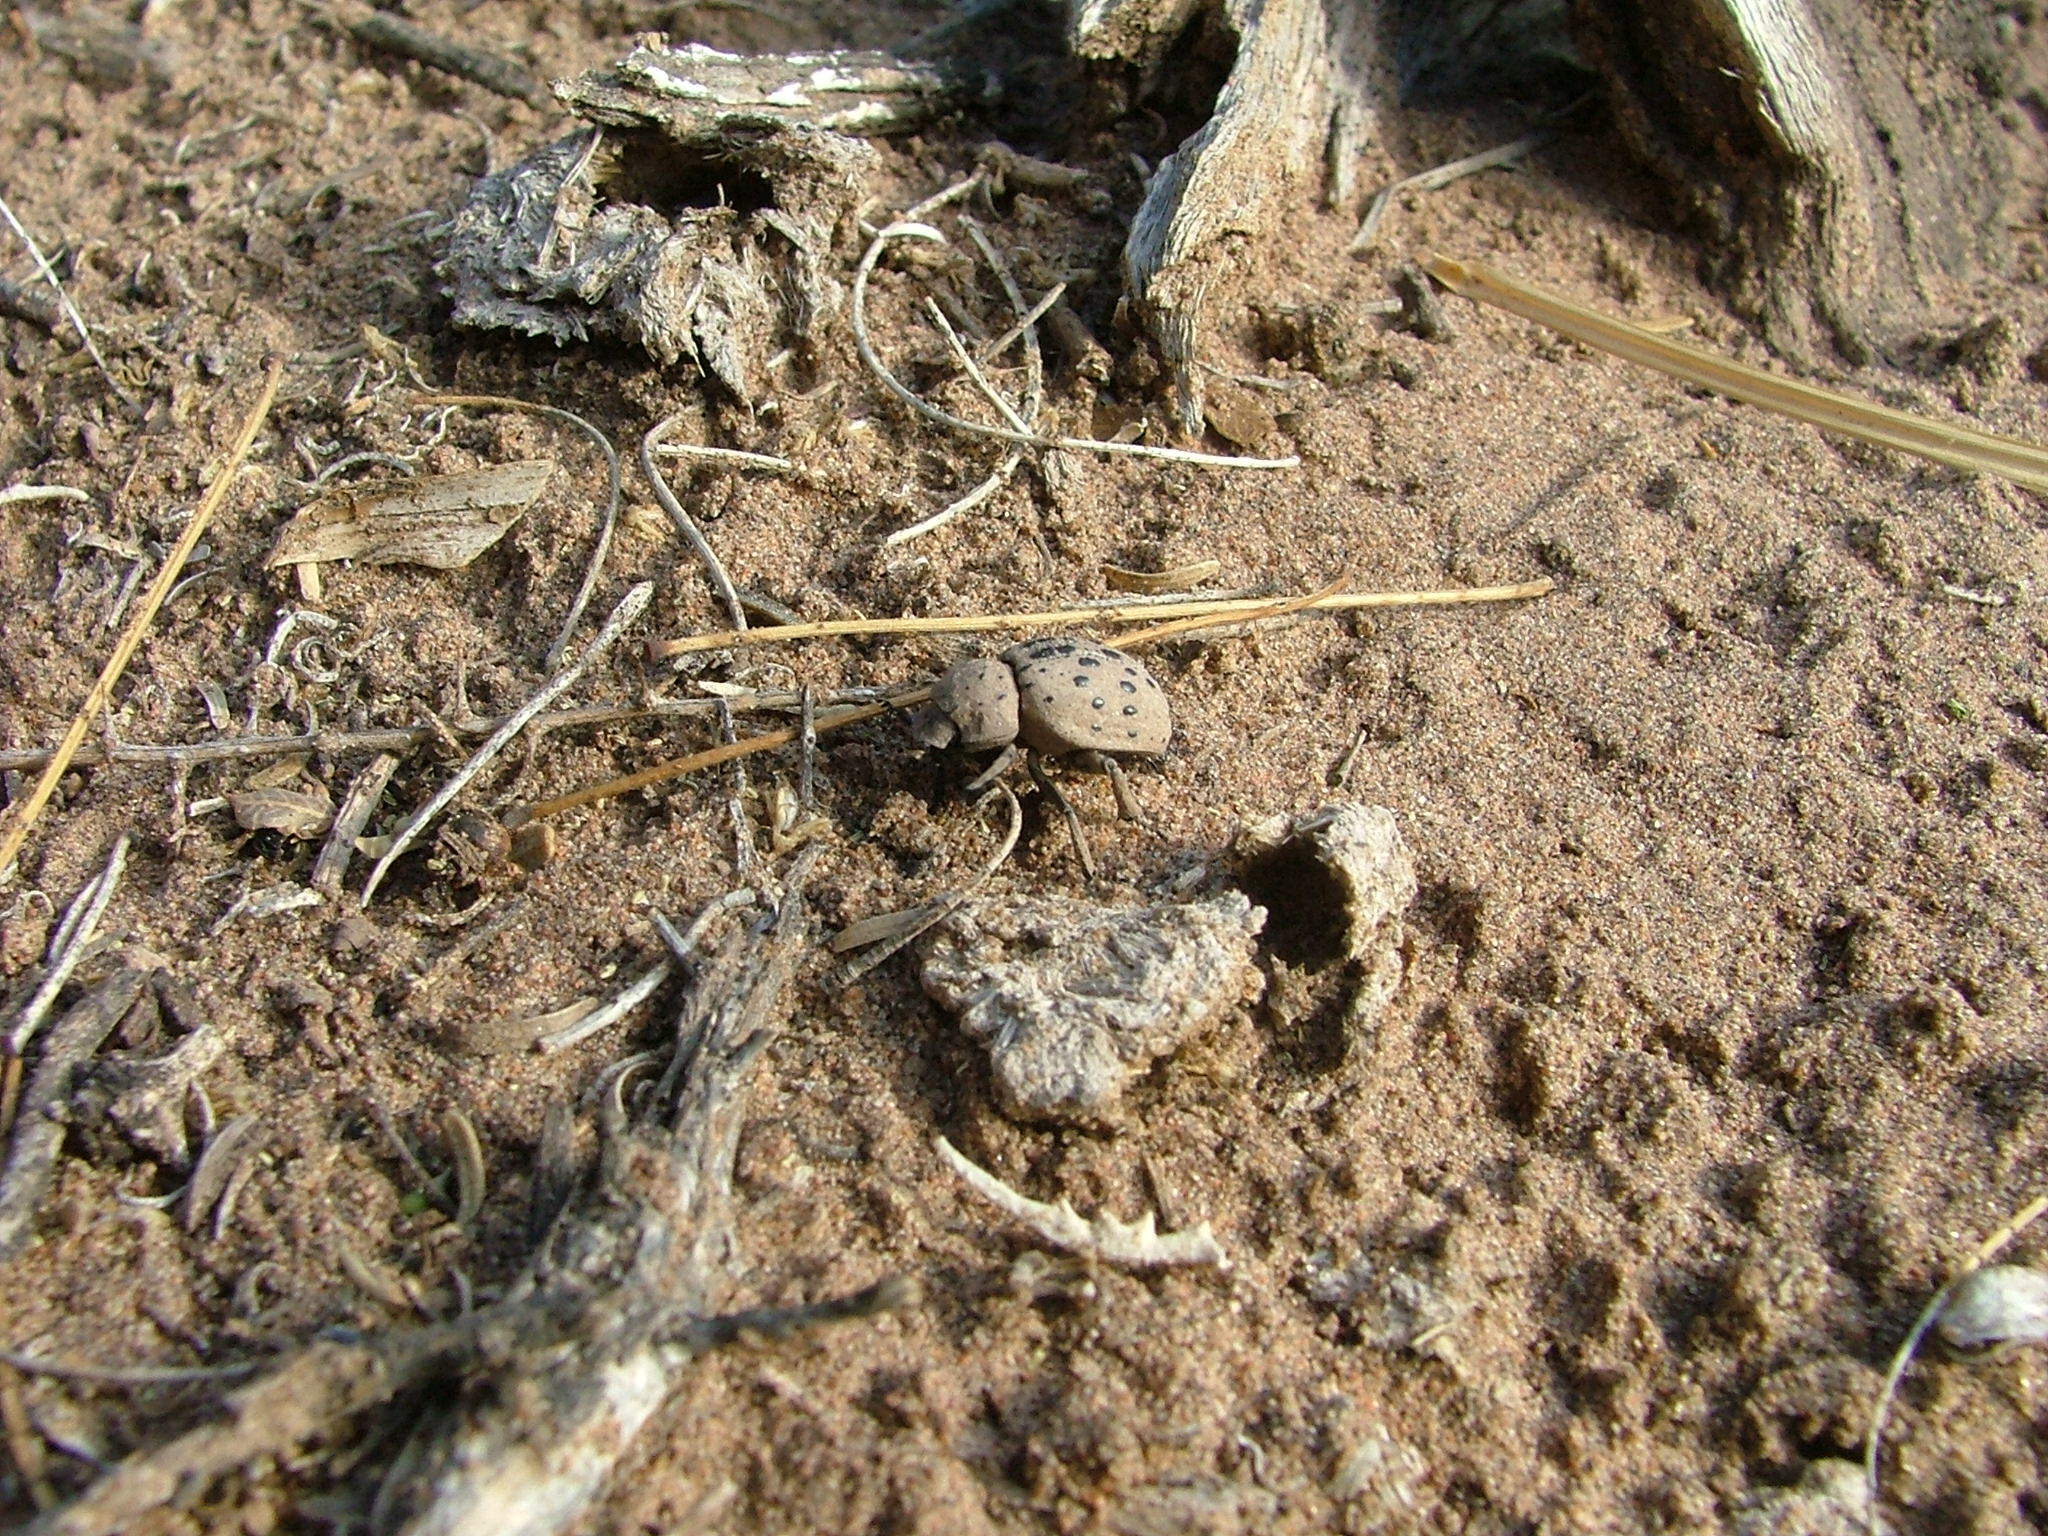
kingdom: Animalia
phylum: Arthropoda
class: Insecta
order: Coleoptera
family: Trogidae
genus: Omorgus
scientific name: Omorgus pastillarius
